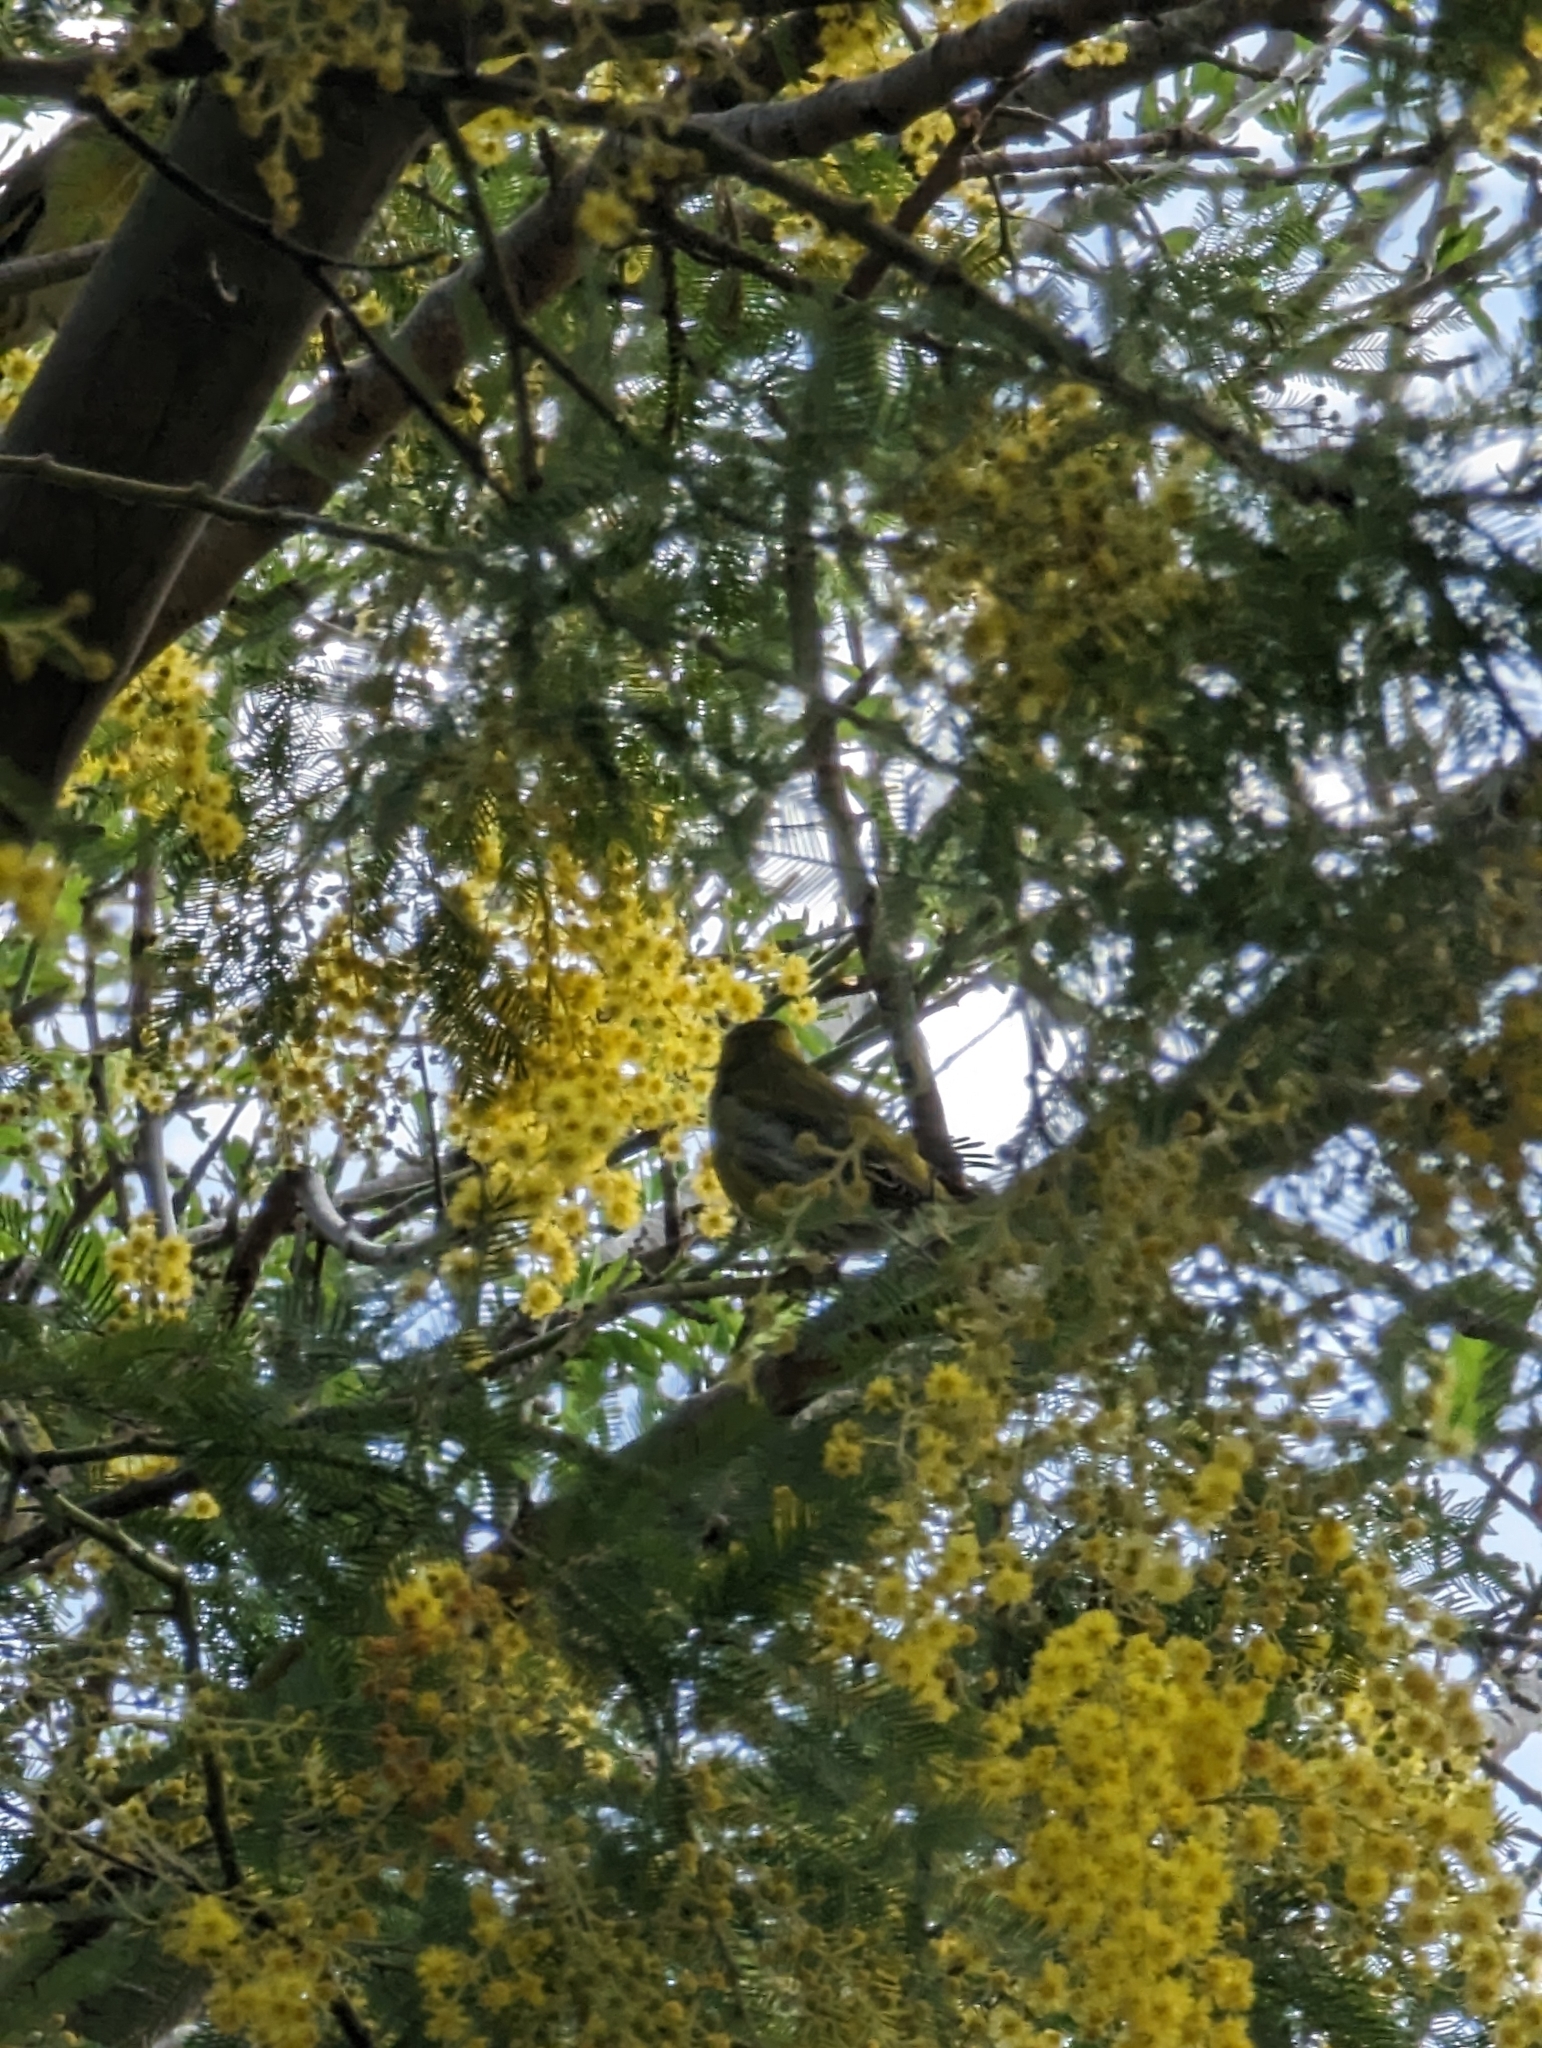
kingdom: Animalia
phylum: Chordata
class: Aves
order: Passeriformes
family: Fringillidae
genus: Spinus
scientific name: Spinus spinus
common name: Eurasian siskin
